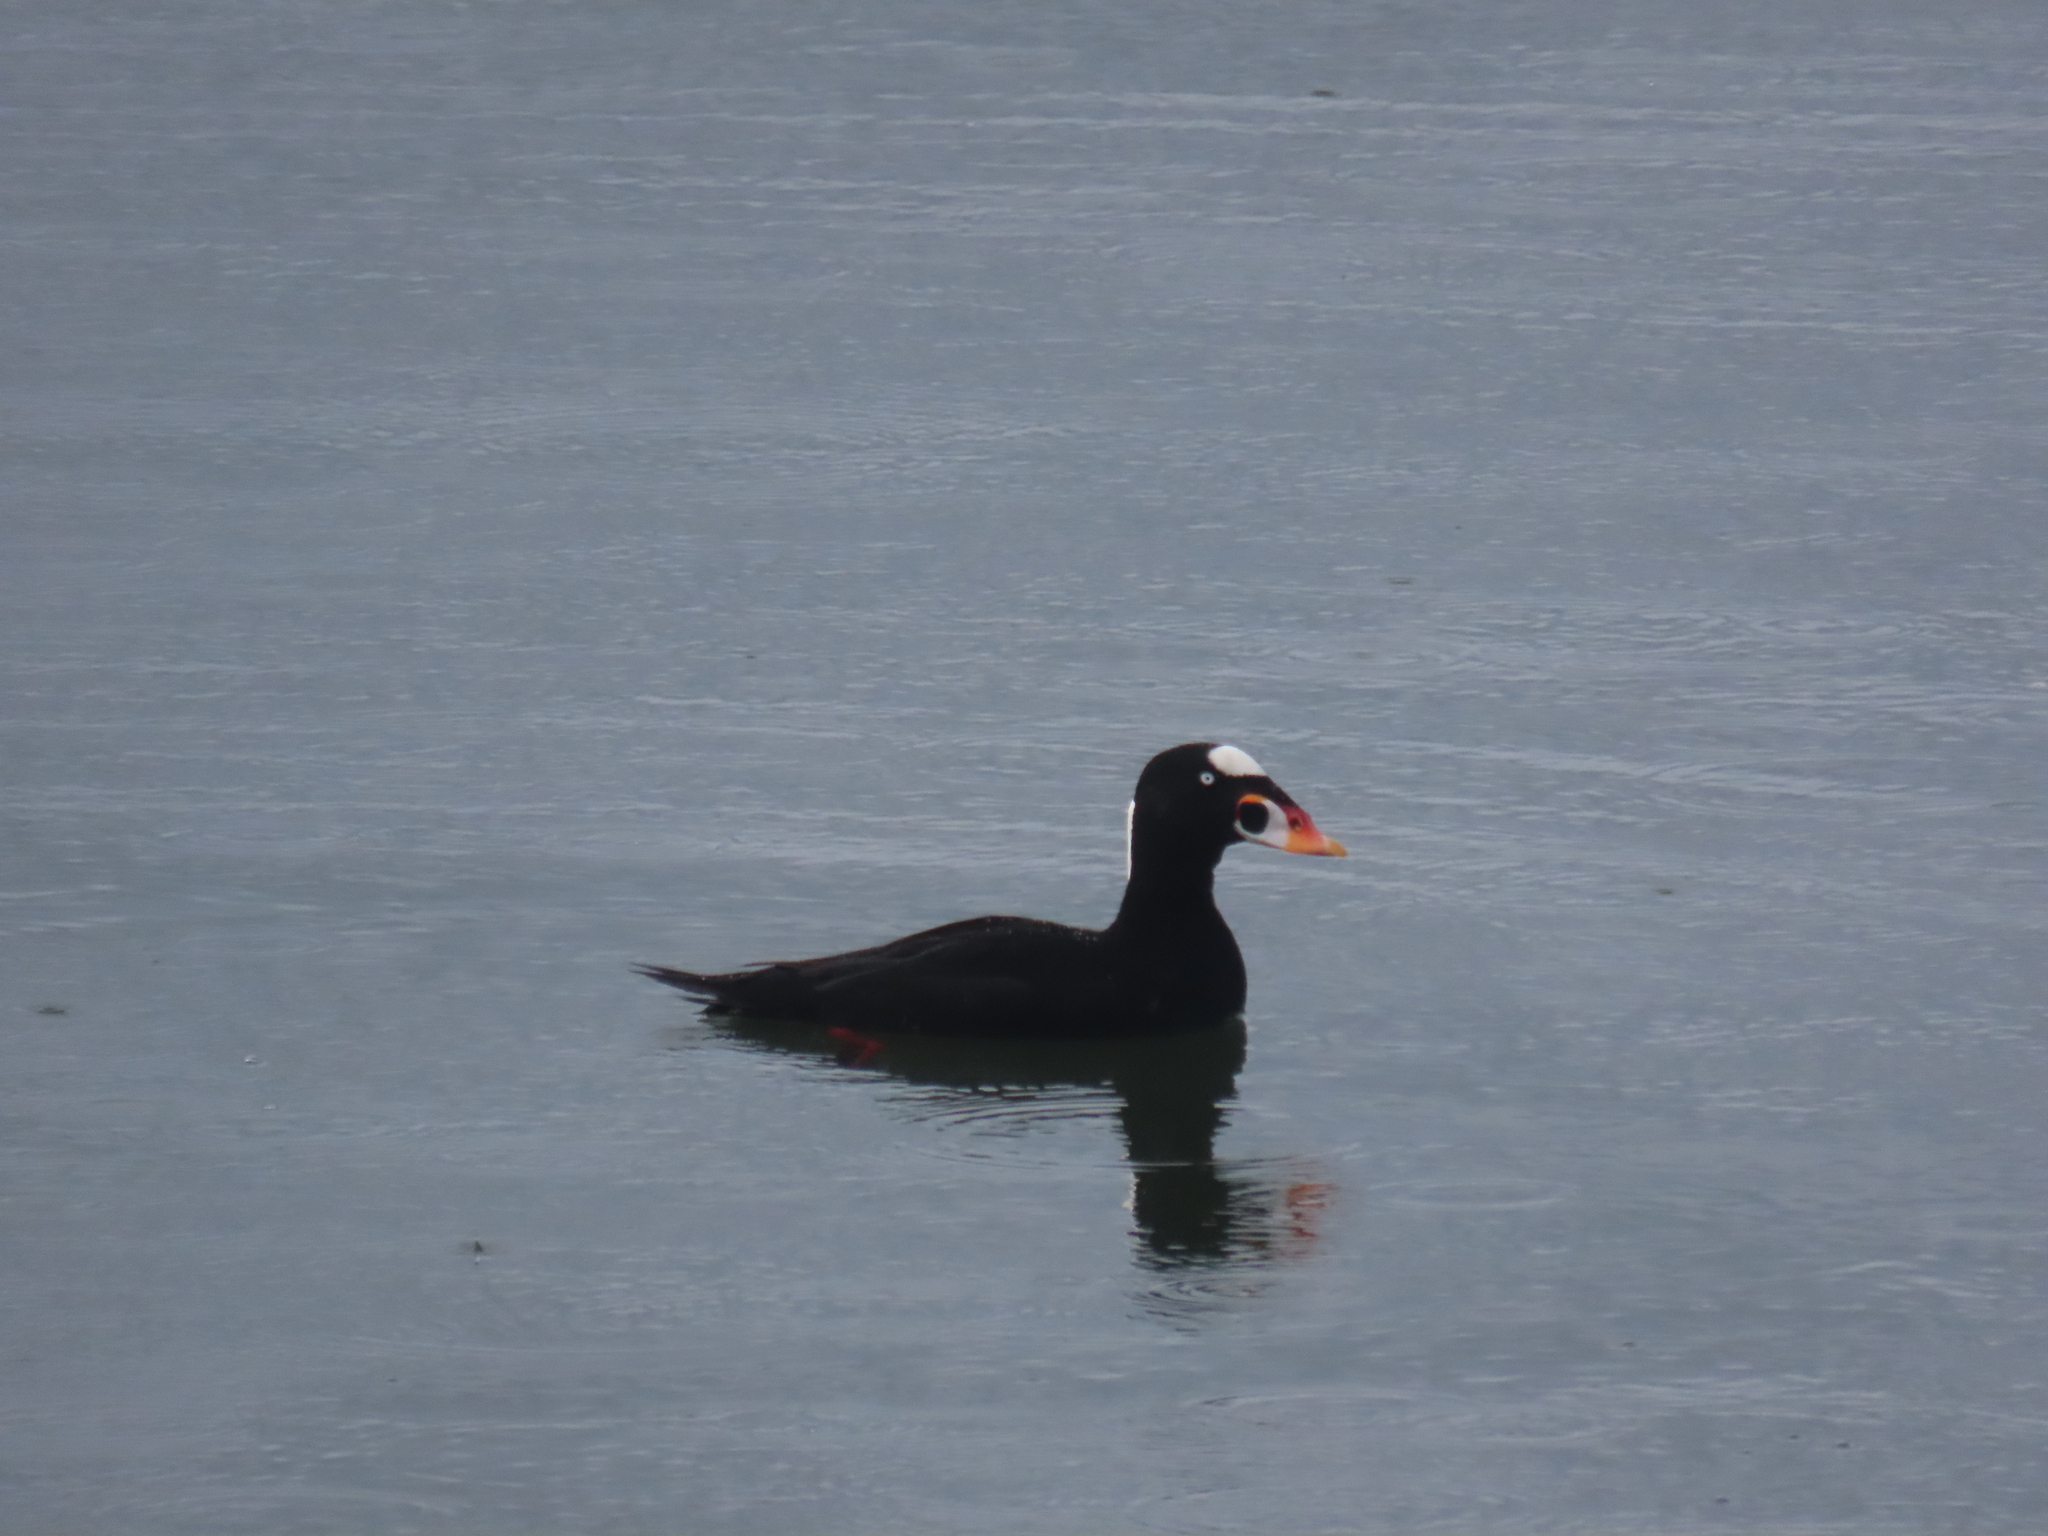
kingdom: Animalia
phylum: Chordata
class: Aves
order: Anseriformes
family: Anatidae
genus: Melanitta
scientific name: Melanitta perspicillata
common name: Surf scoter
